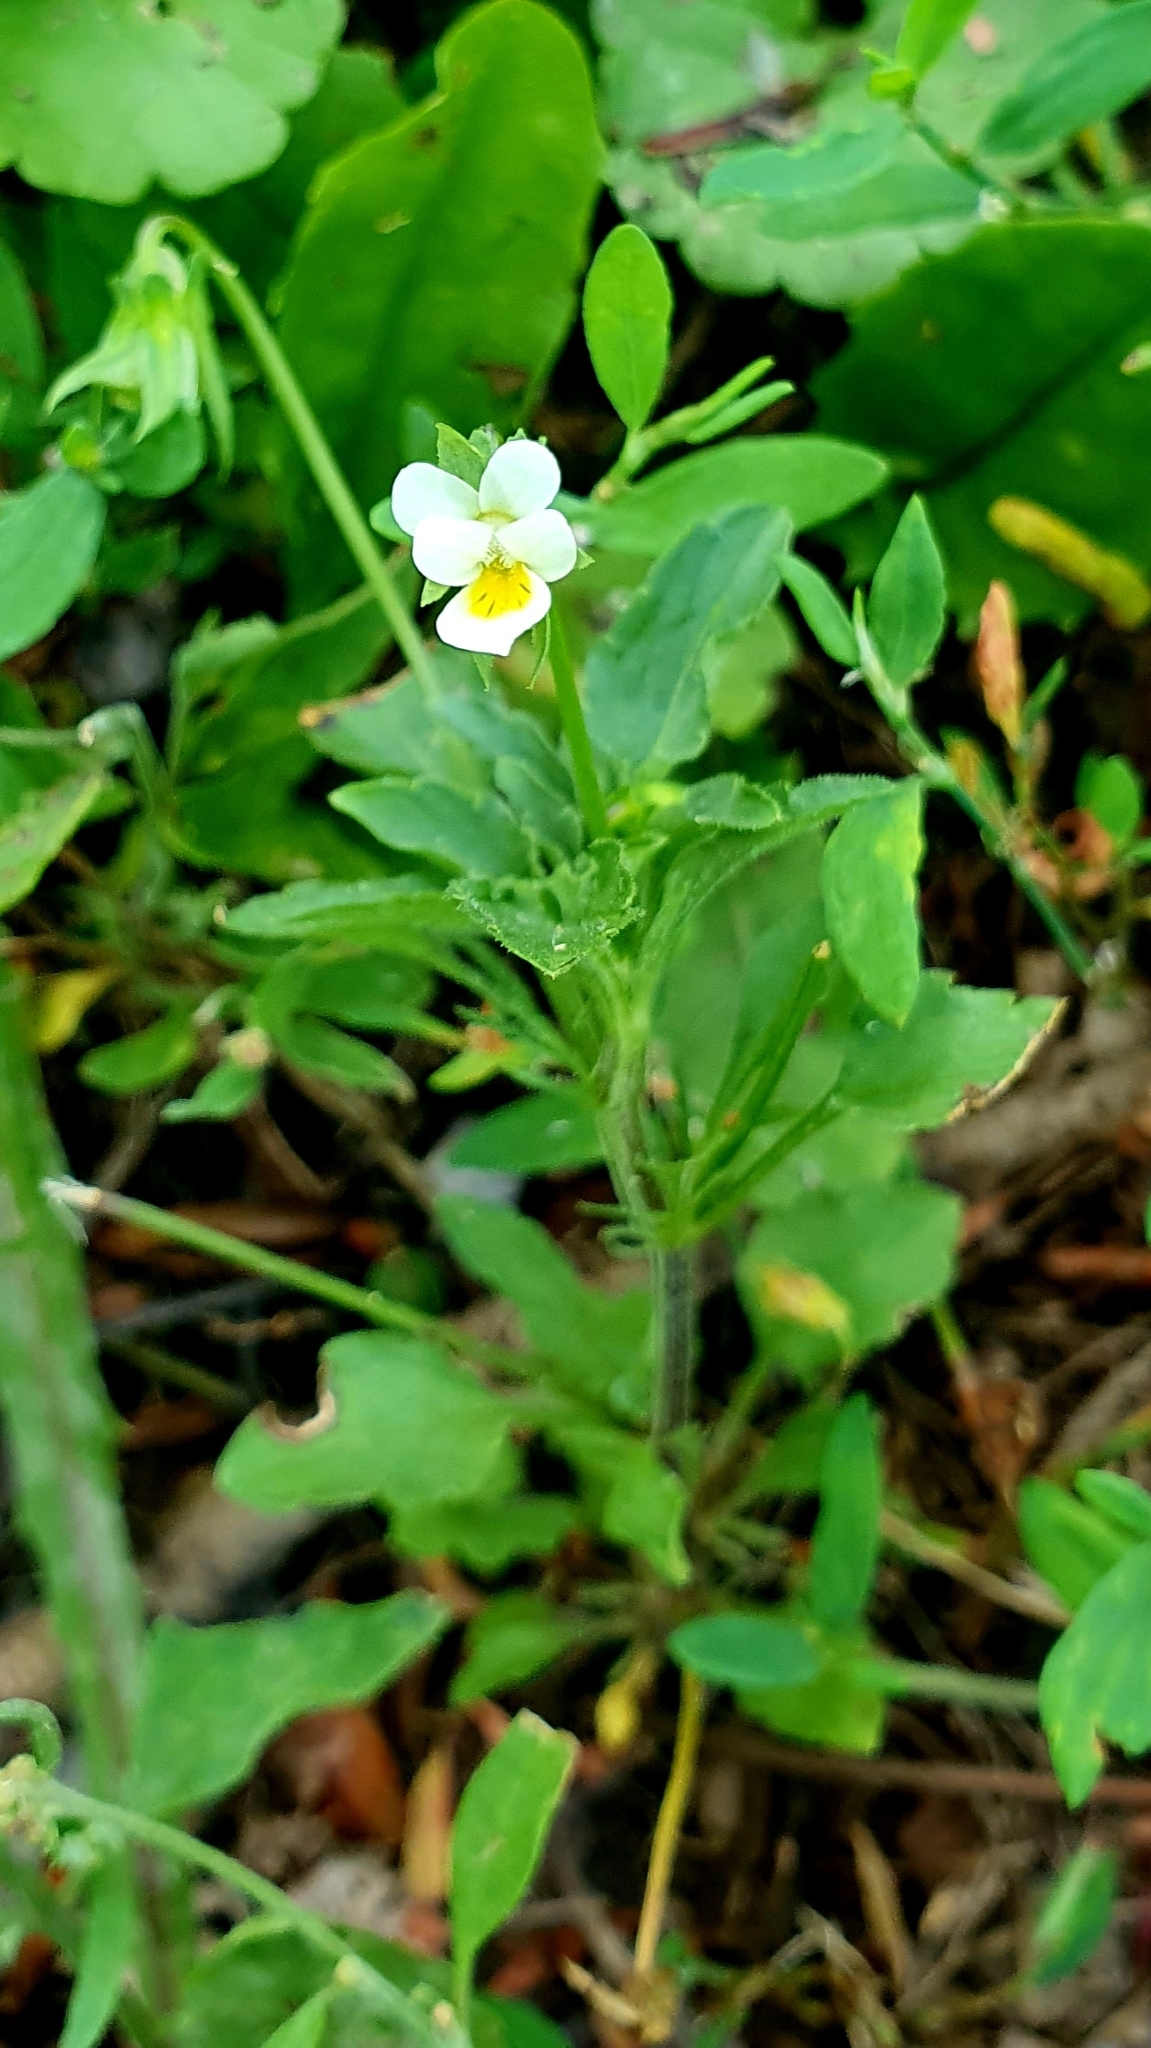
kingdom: Plantae
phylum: Tracheophyta
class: Magnoliopsida
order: Malpighiales
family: Violaceae
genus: Viola
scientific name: Viola arvensis
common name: Field pansy
